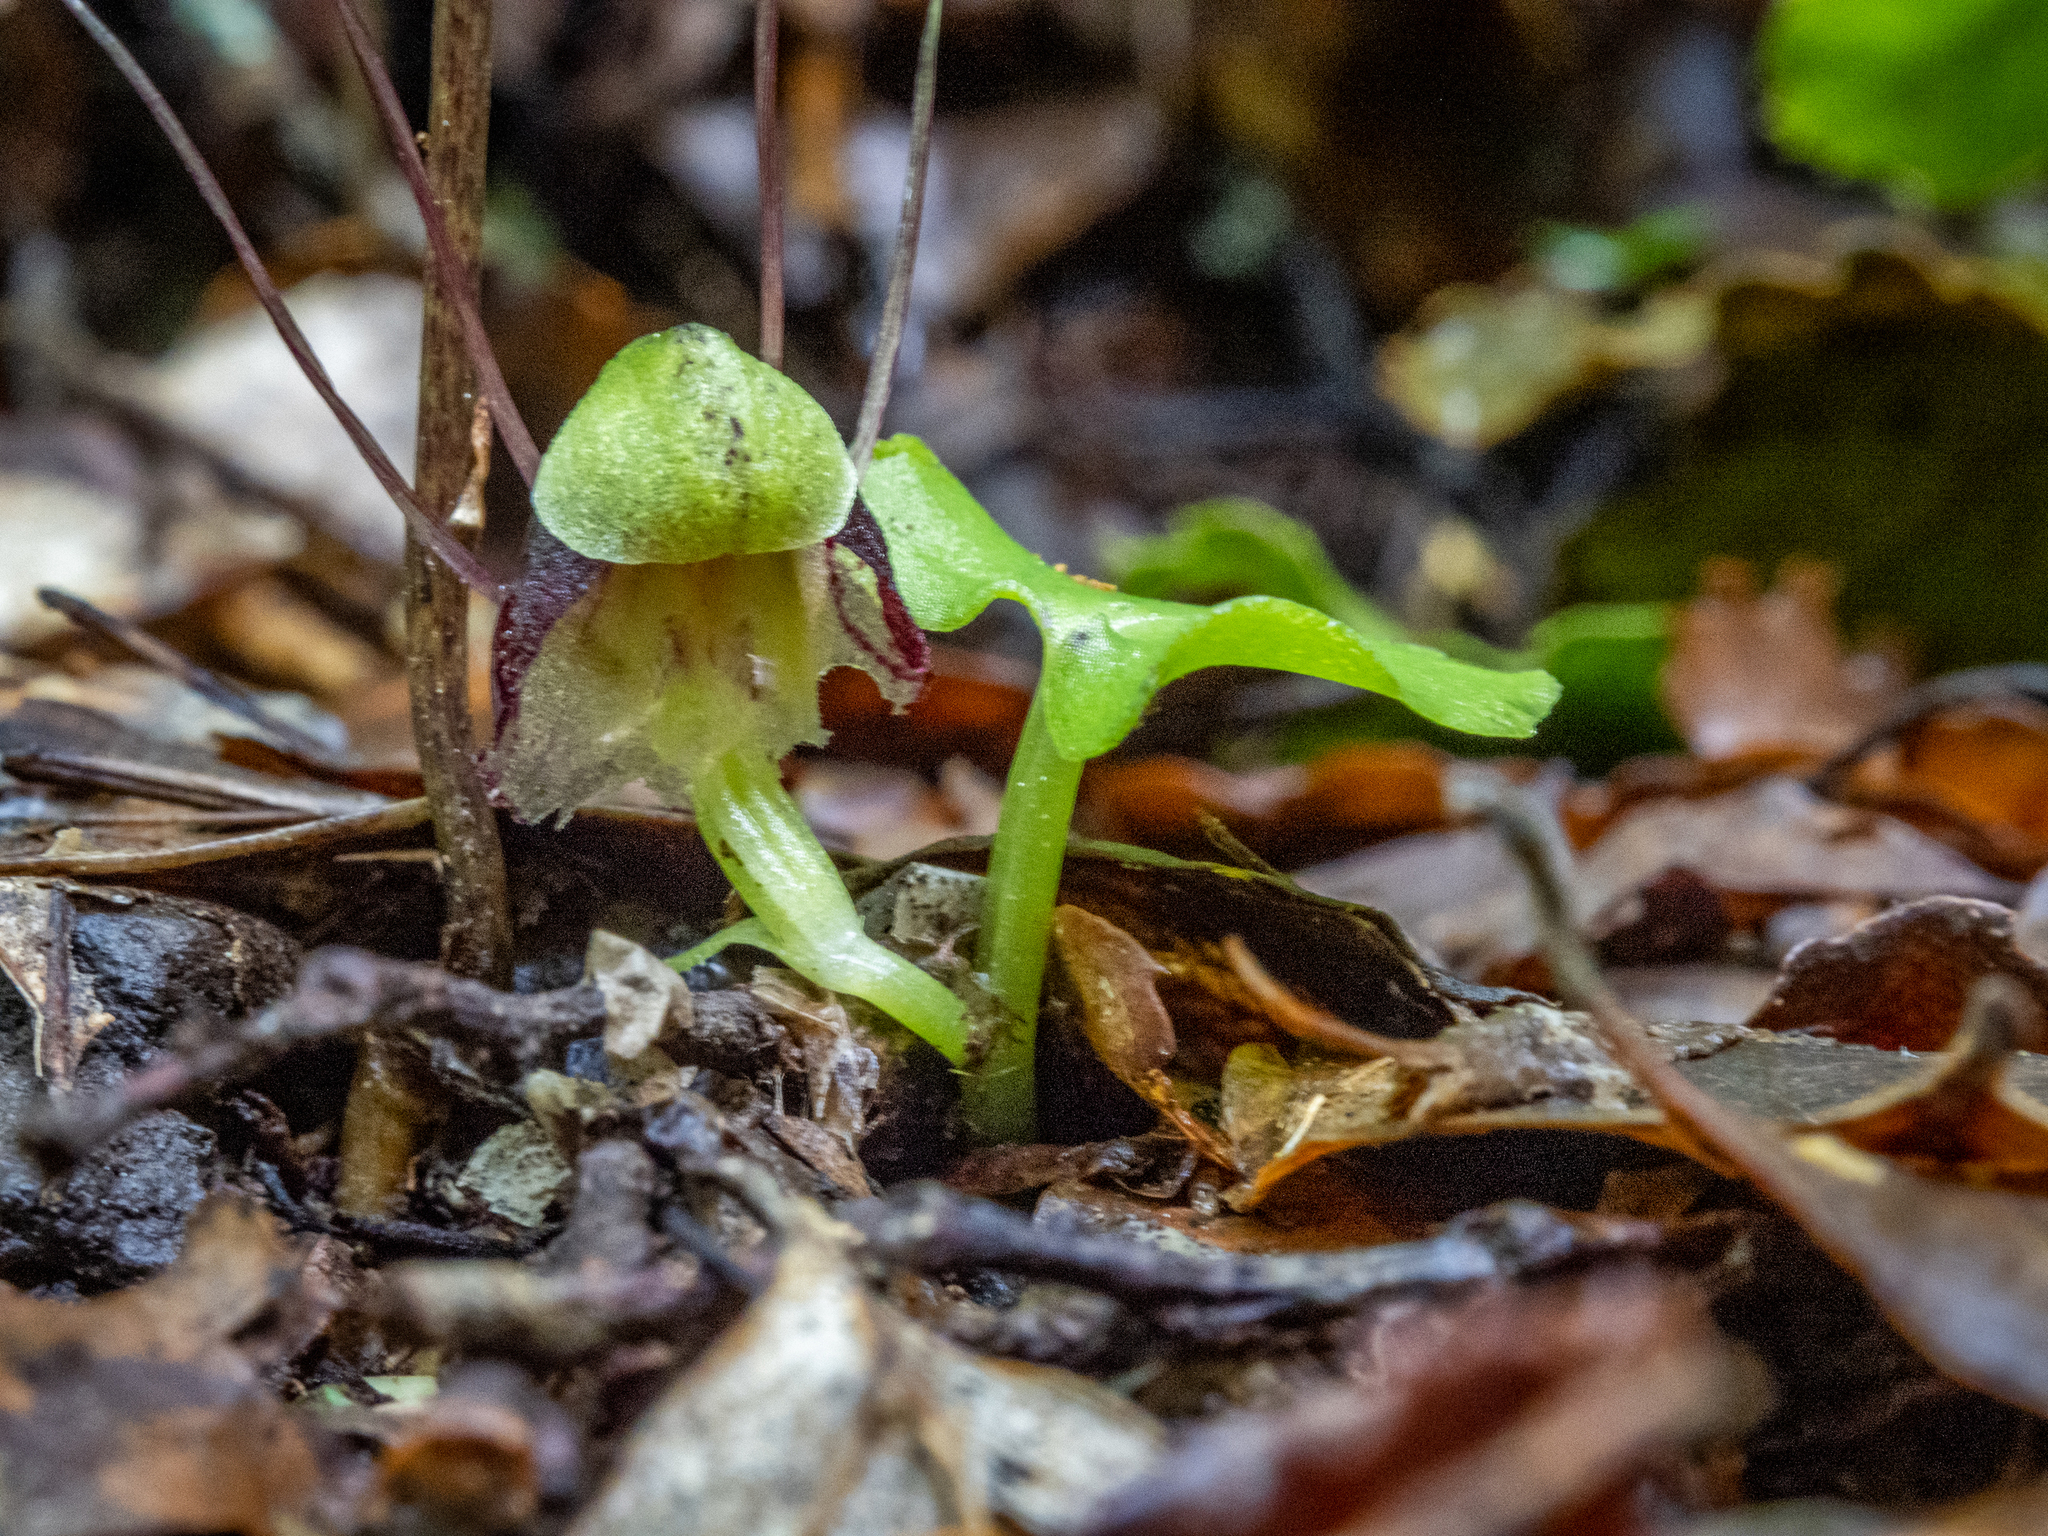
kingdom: Plantae
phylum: Tracheophyta
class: Liliopsida
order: Asparagales
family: Orchidaceae
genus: Corybas
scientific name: Corybas vitreus
